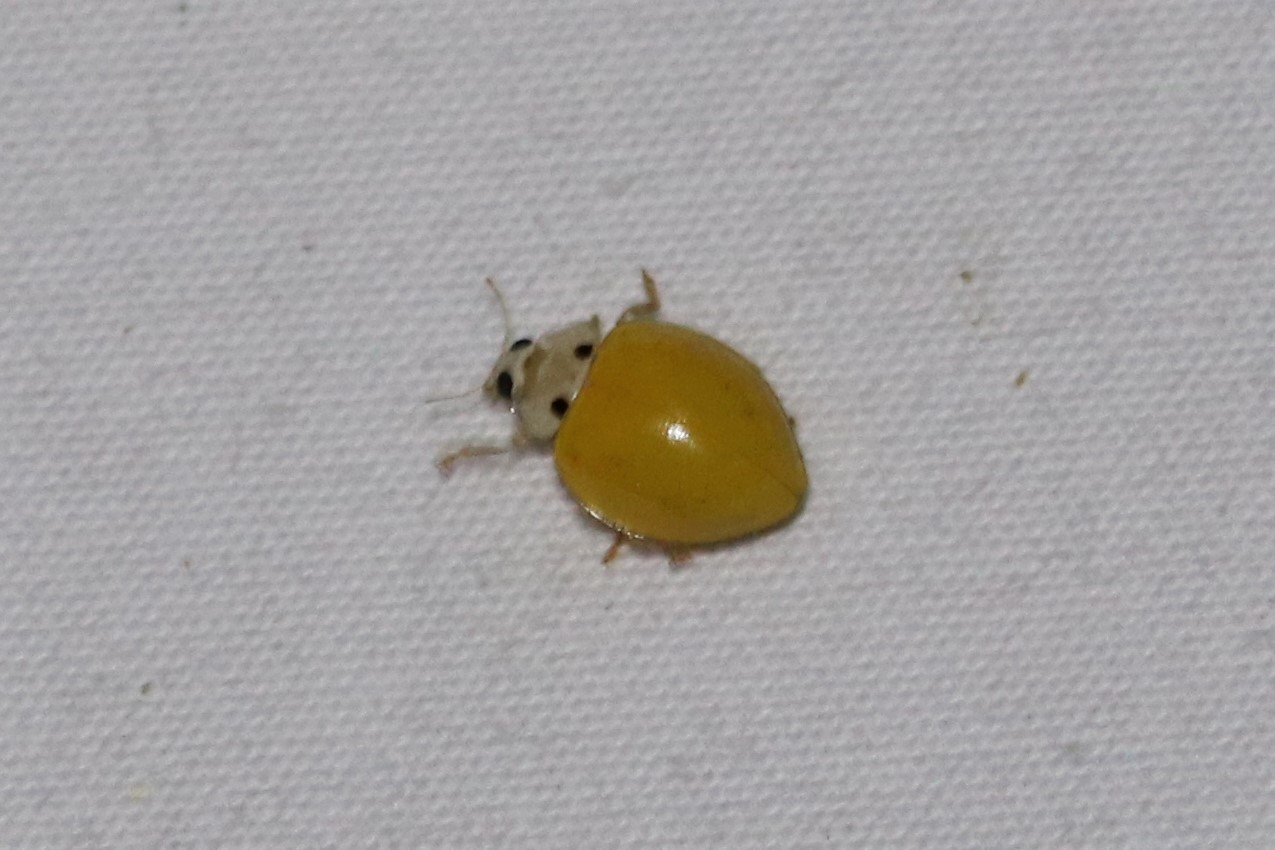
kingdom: Animalia
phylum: Arthropoda
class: Insecta
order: Coleoptera
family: Coccinellidae
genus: Illeis
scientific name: Illeis koebelei
